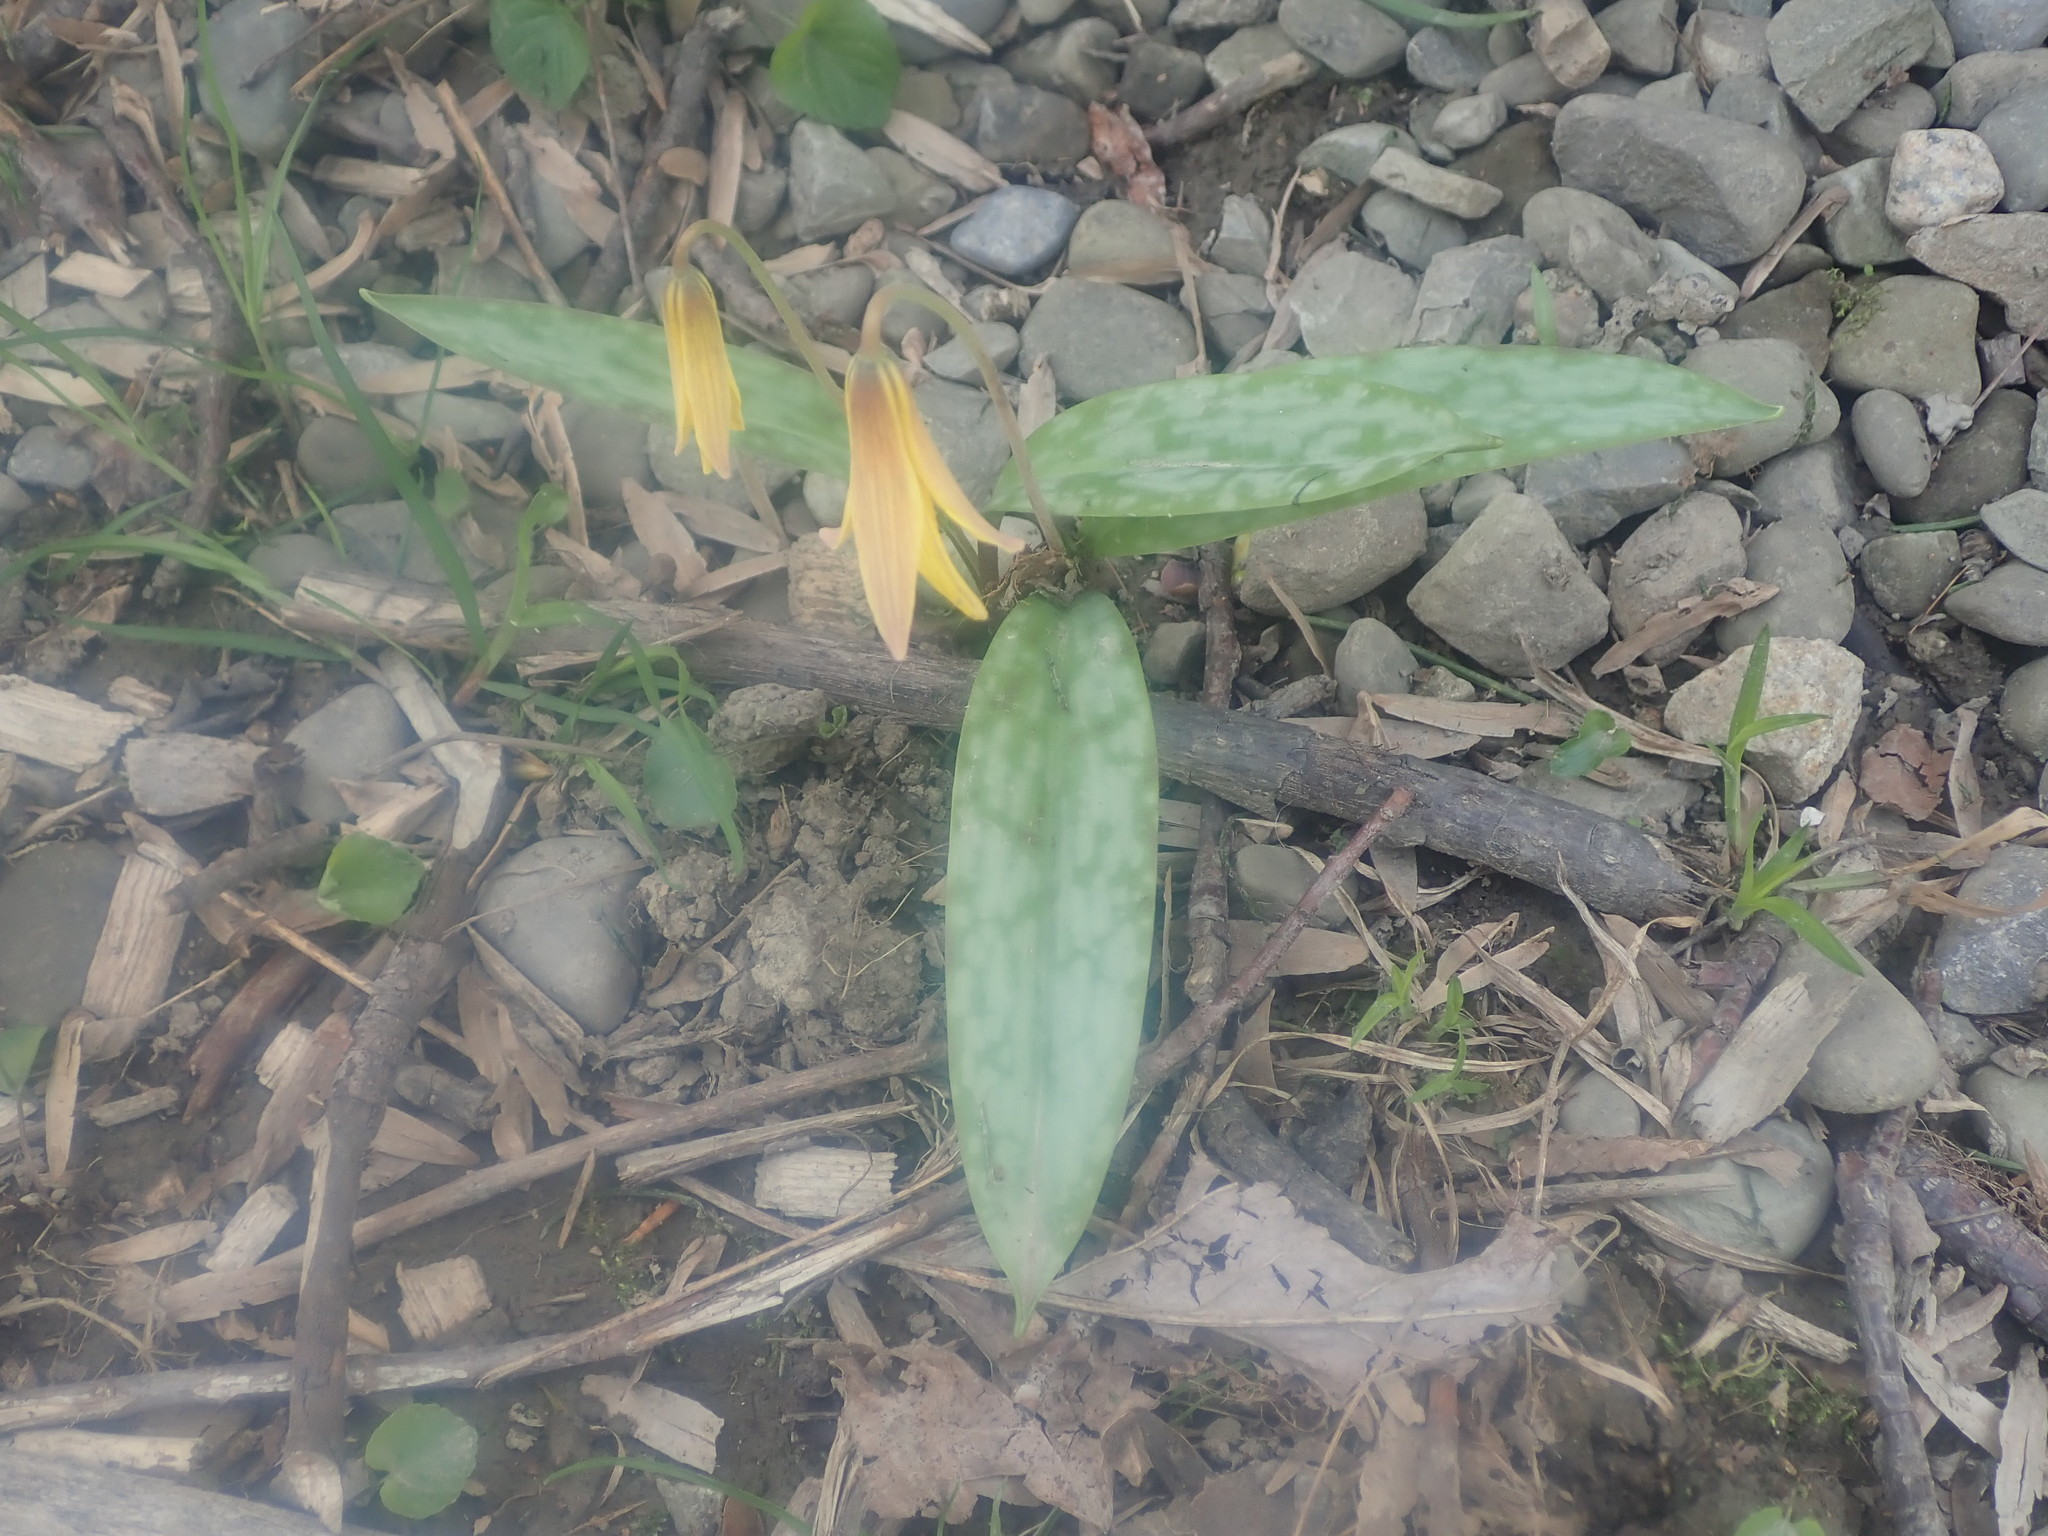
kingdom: Plantae
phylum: Tracheophyta
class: Liliopsida
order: Liliales
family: Liliaceae
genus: Erythronium
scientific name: Erythronium americanum
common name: Yellow adder's-tongue
